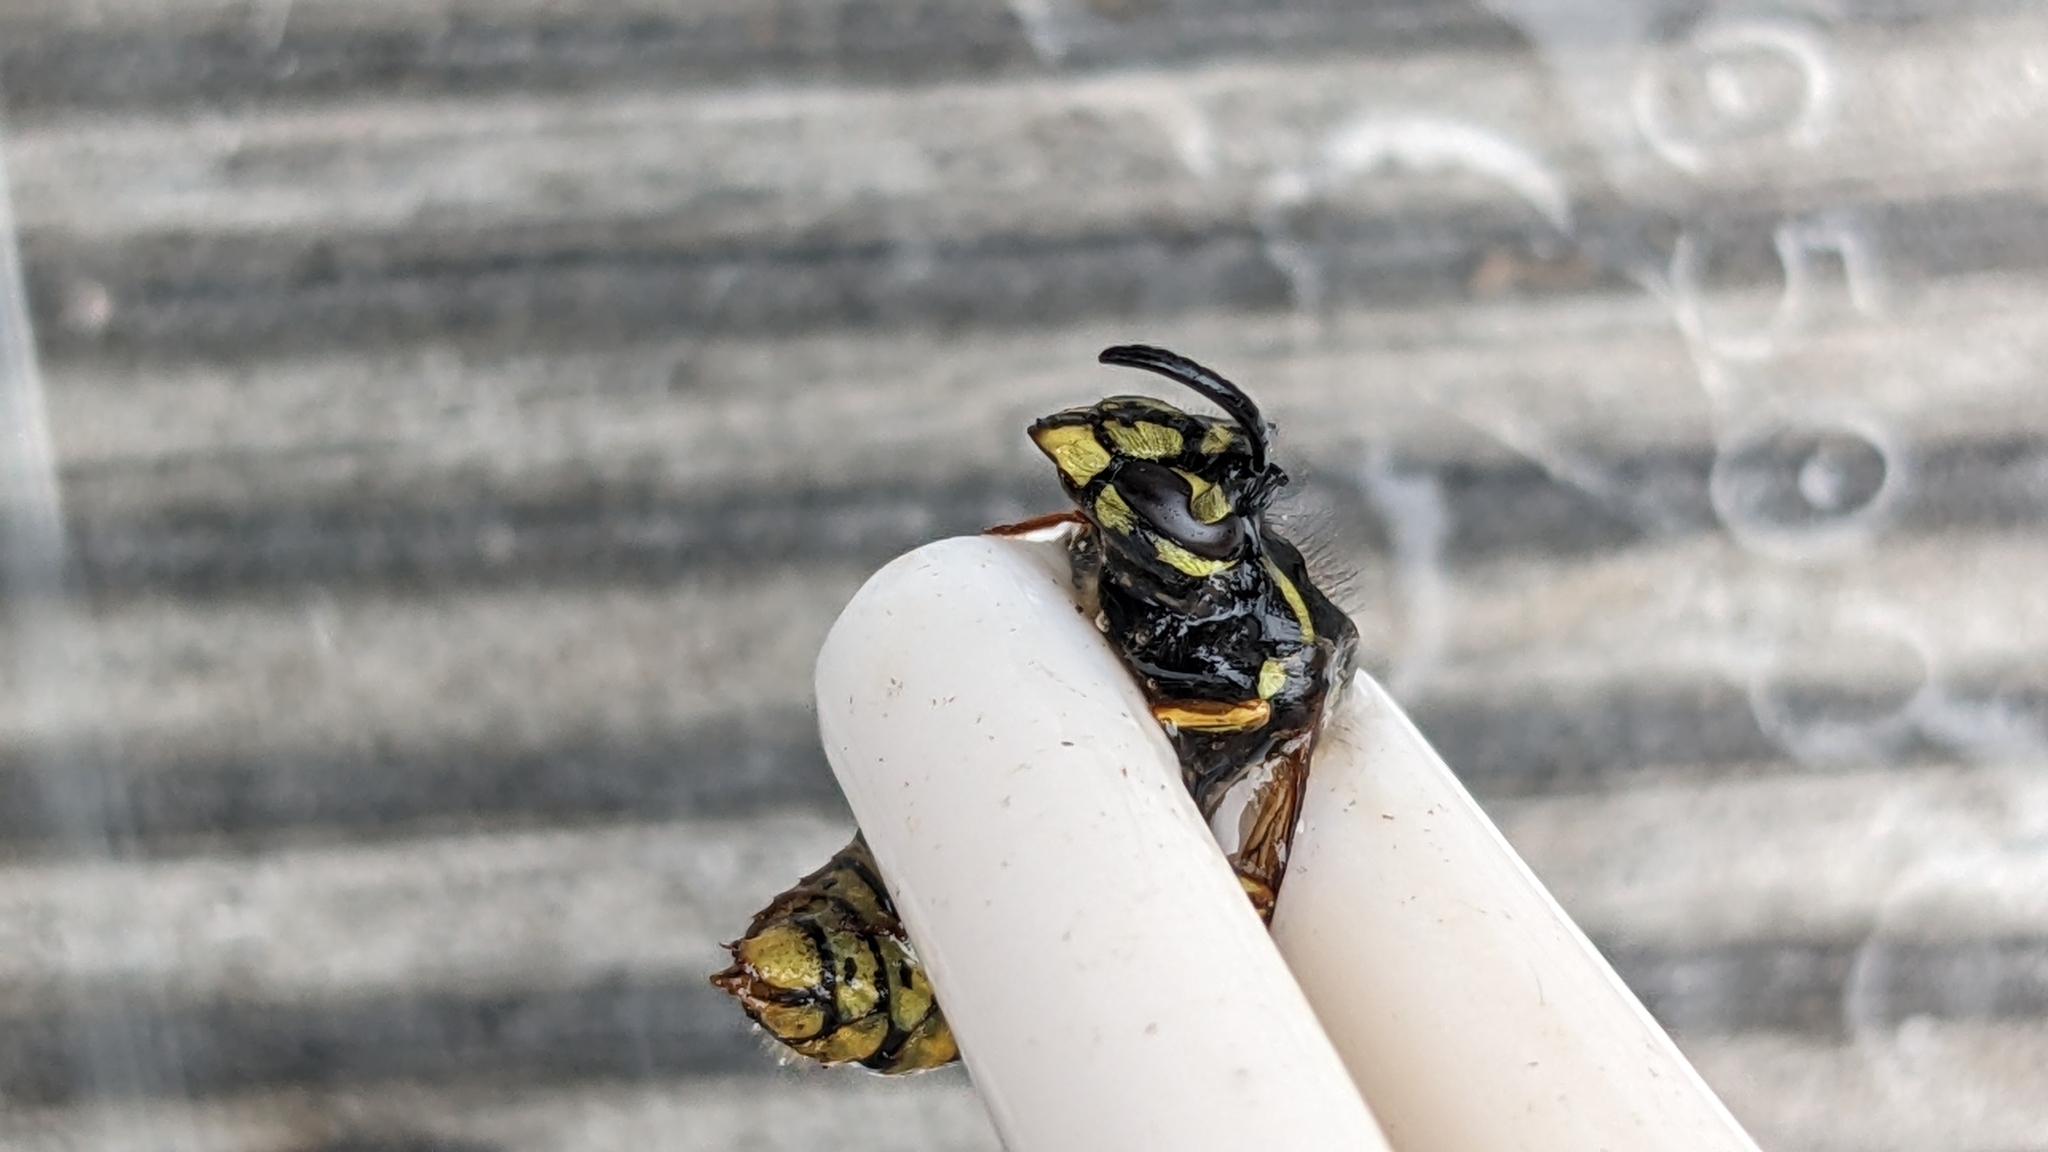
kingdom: Animalia
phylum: Arthropoda
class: Insecta
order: Hymenoptera
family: Vespidae
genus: Vespula
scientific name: Vespula vulgaris
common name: Common wasp
